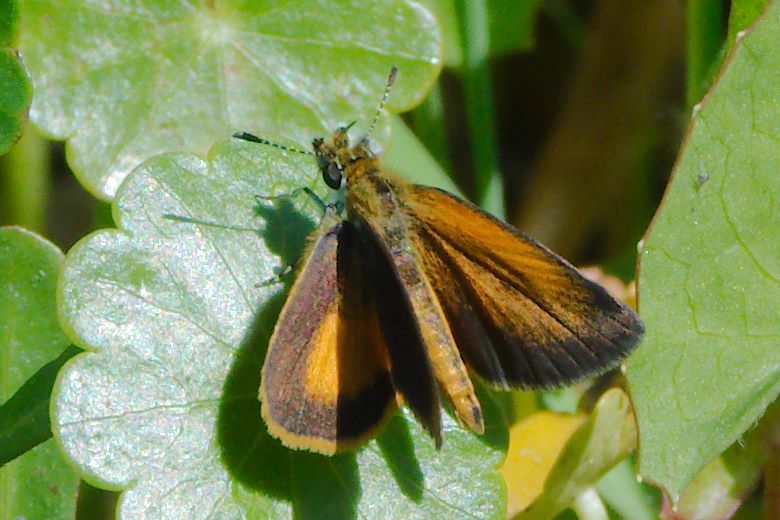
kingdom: Animalia
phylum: Arthropoda
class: Insecta
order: Lepidoptera
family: Hesperiidae
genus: Ancyloxypha
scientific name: Ancyloxypha numitor
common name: Least skipper
